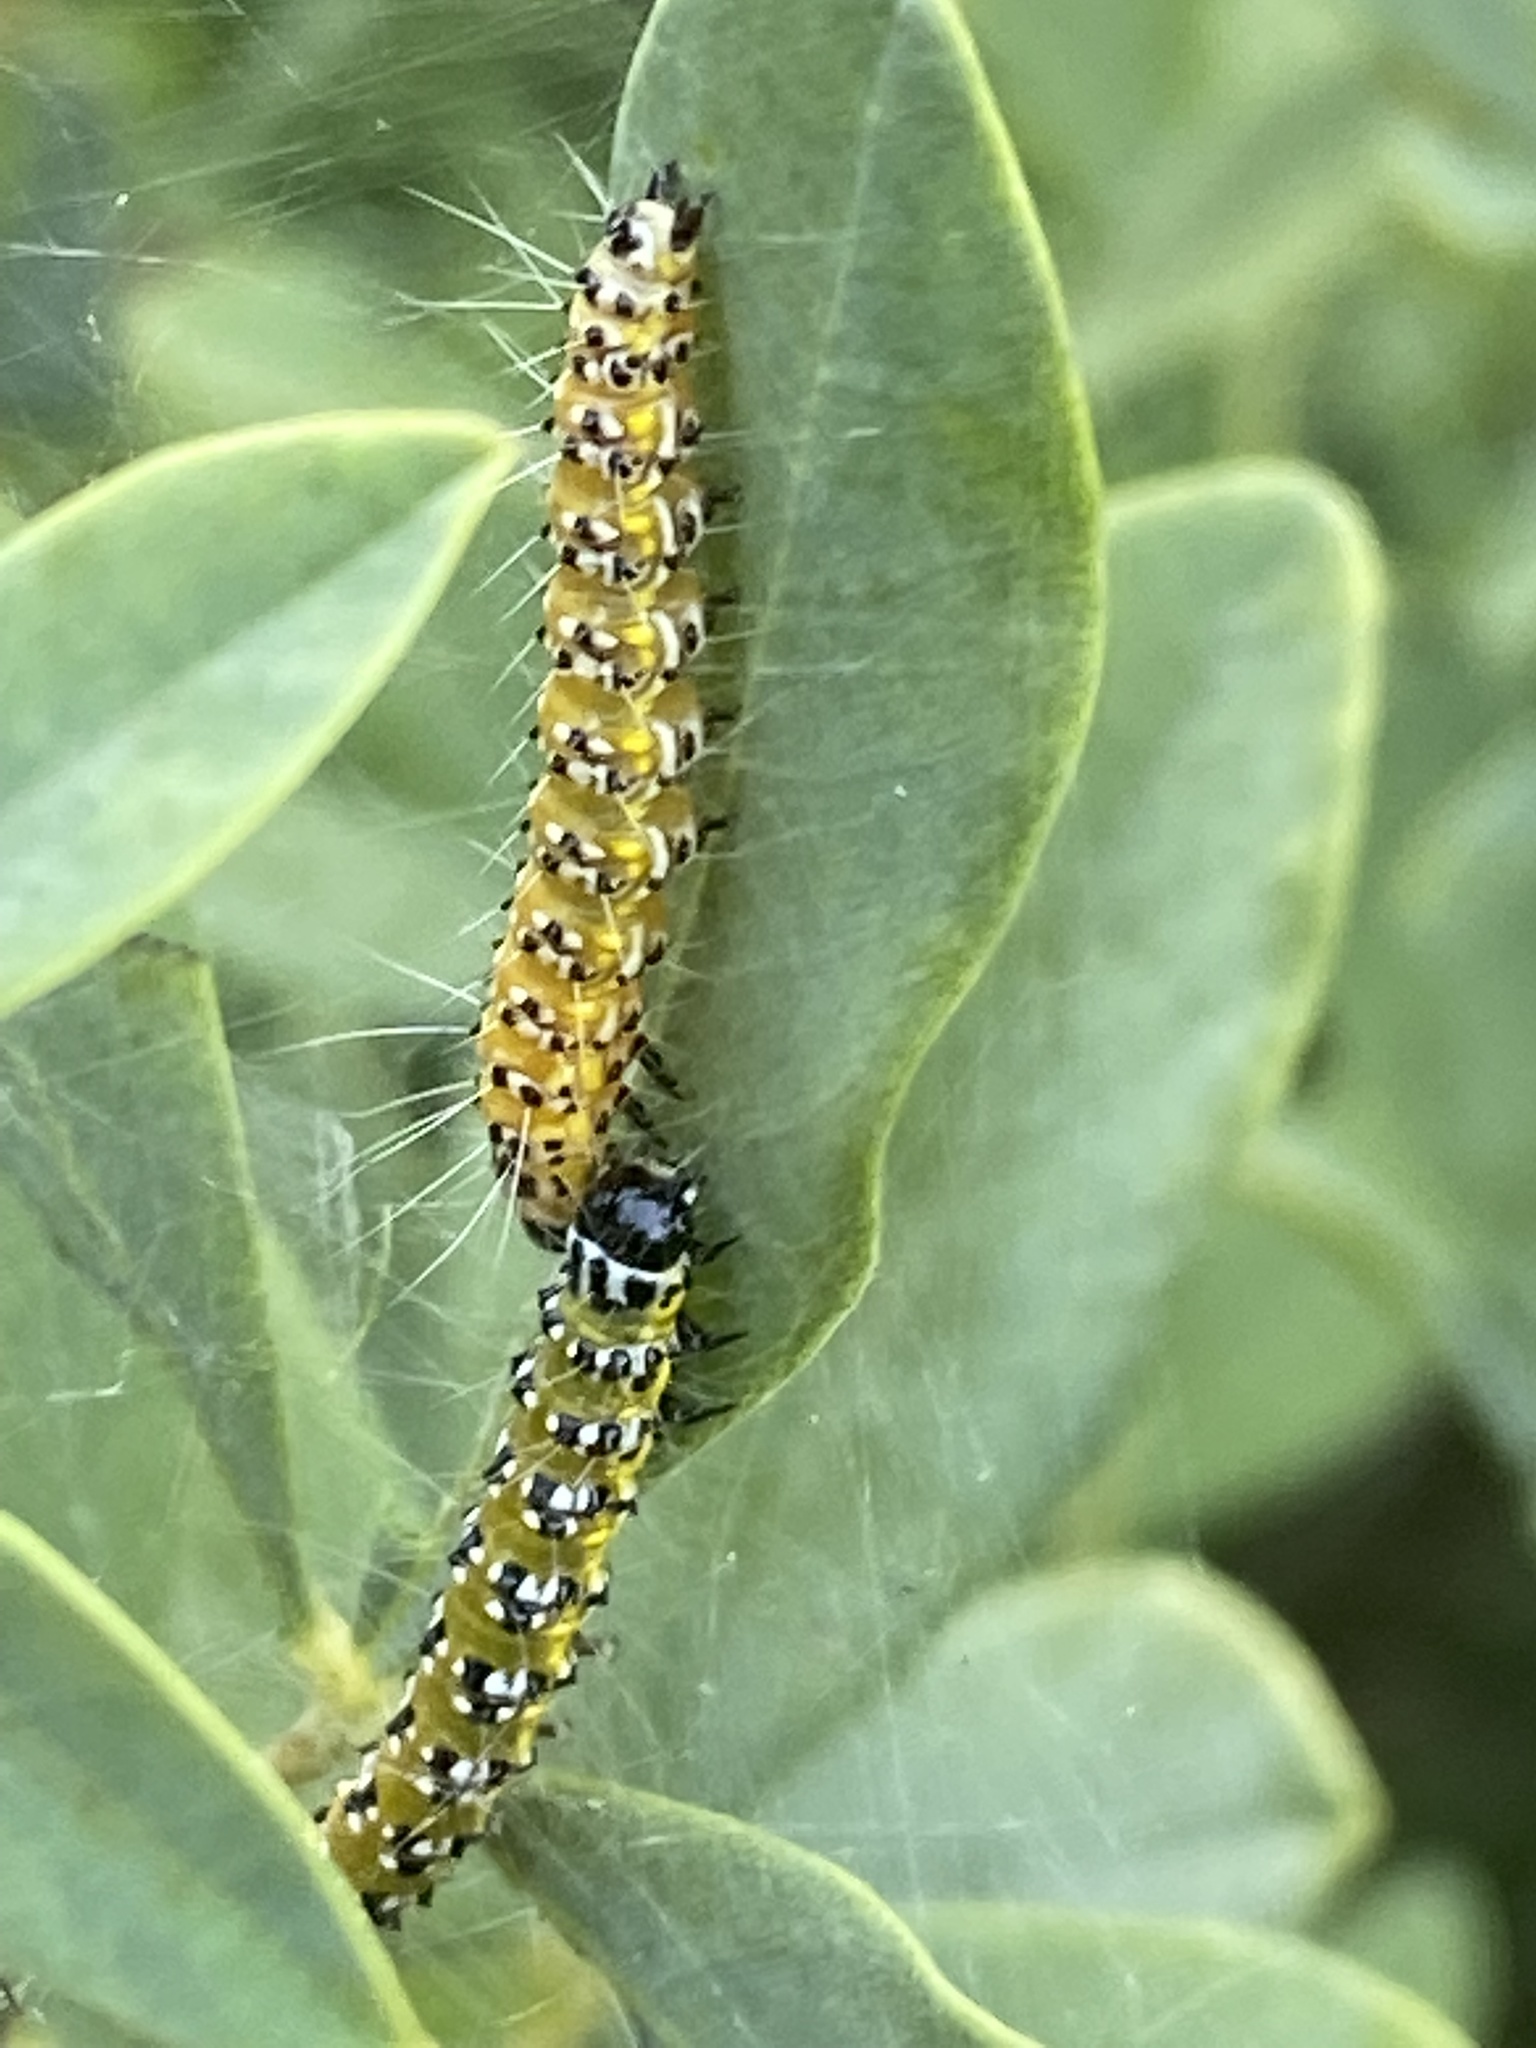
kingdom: Animalia
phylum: Arthropoda
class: Insecta
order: Lepidoptera
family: Crambidae
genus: Uresiphita
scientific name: Uresiphita reversalis
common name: Genista broom moth
